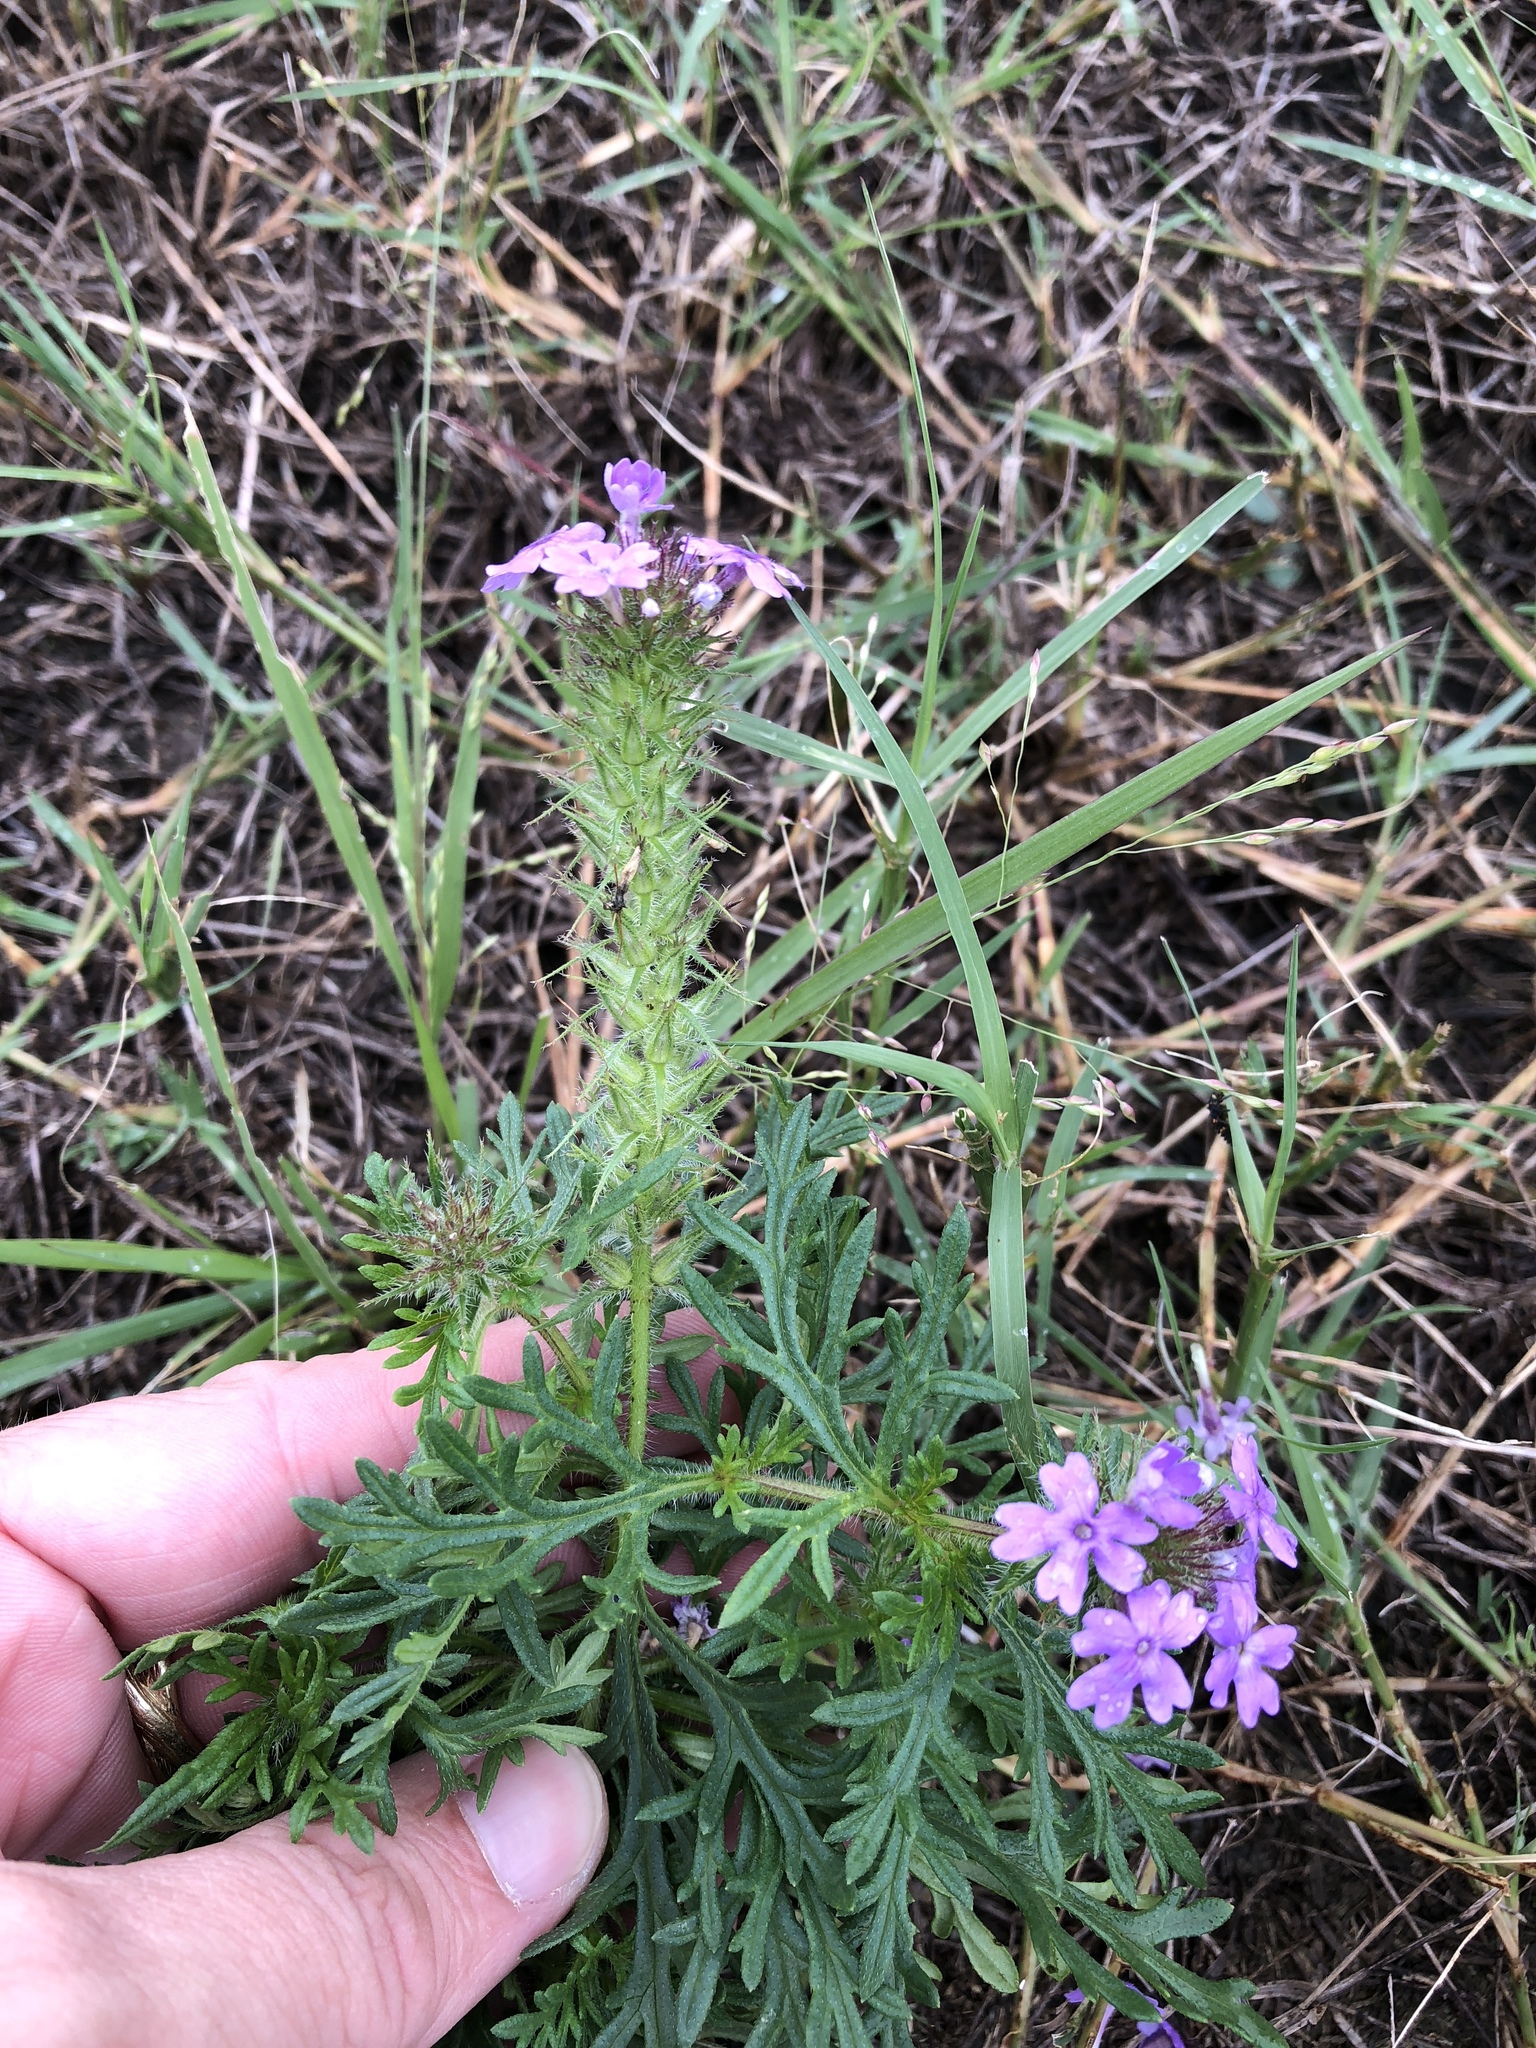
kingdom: Plantae
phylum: Tracheophyta
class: Magnoliopsida
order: Lamiales
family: Verbenaceae
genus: Verbena
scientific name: Verbena bipinnatifida
